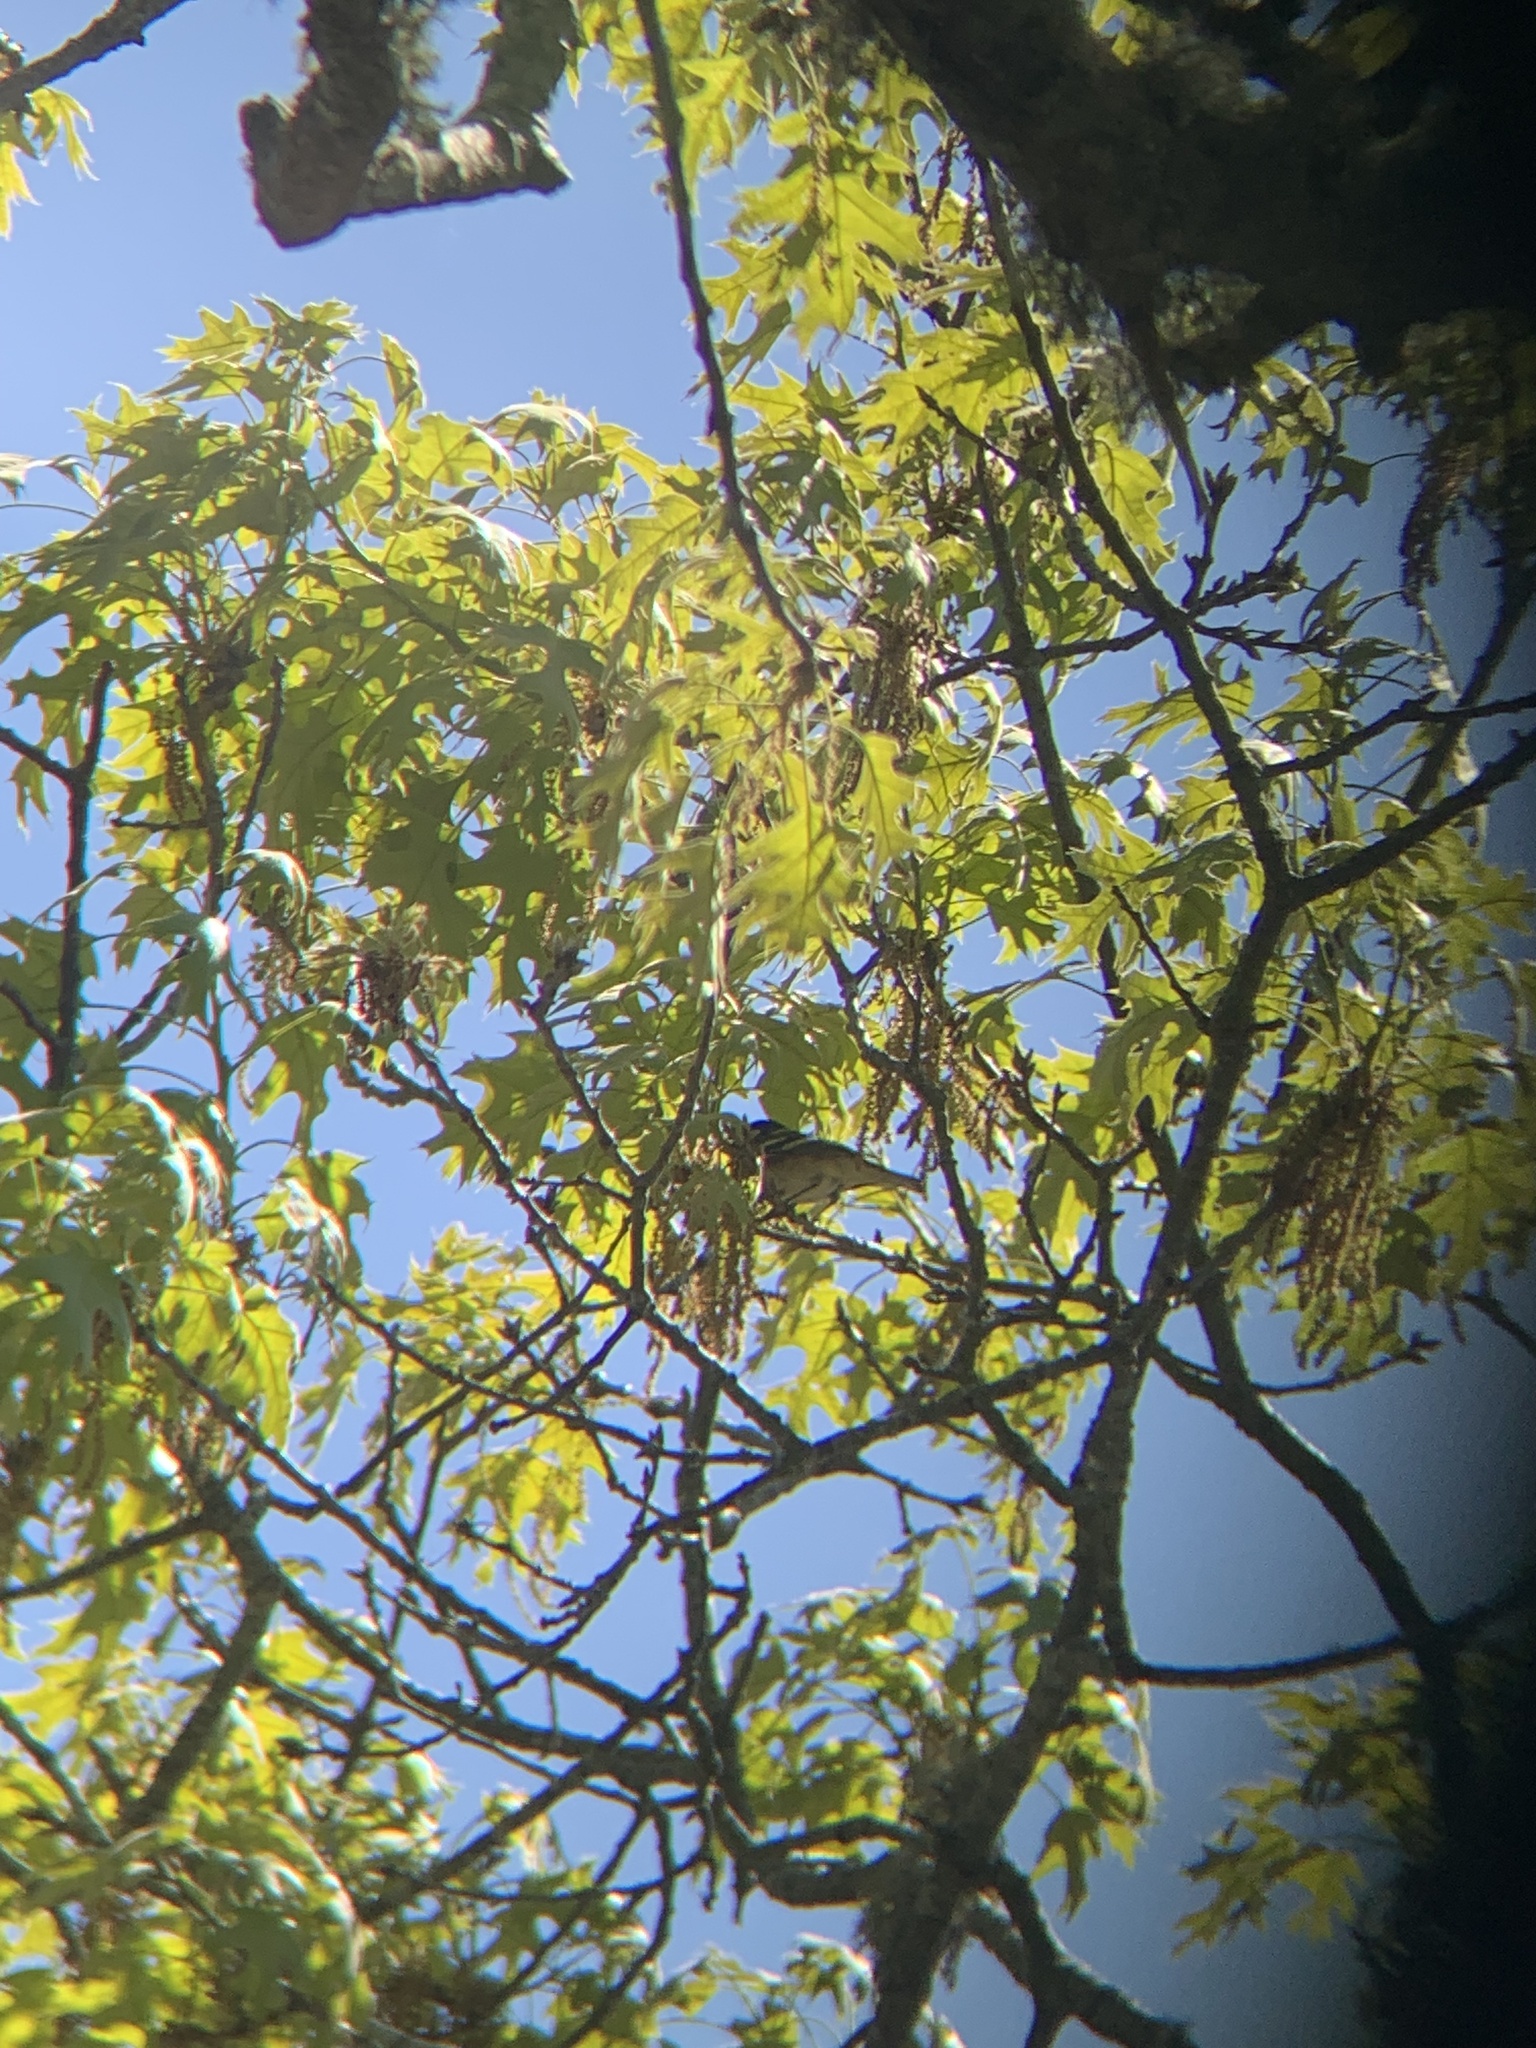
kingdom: Animalia
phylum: Chordata
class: Aves
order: Passeriformes
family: Parulidae
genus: Setophaga
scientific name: Setophaga castanea
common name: Bay-breasted warbler
